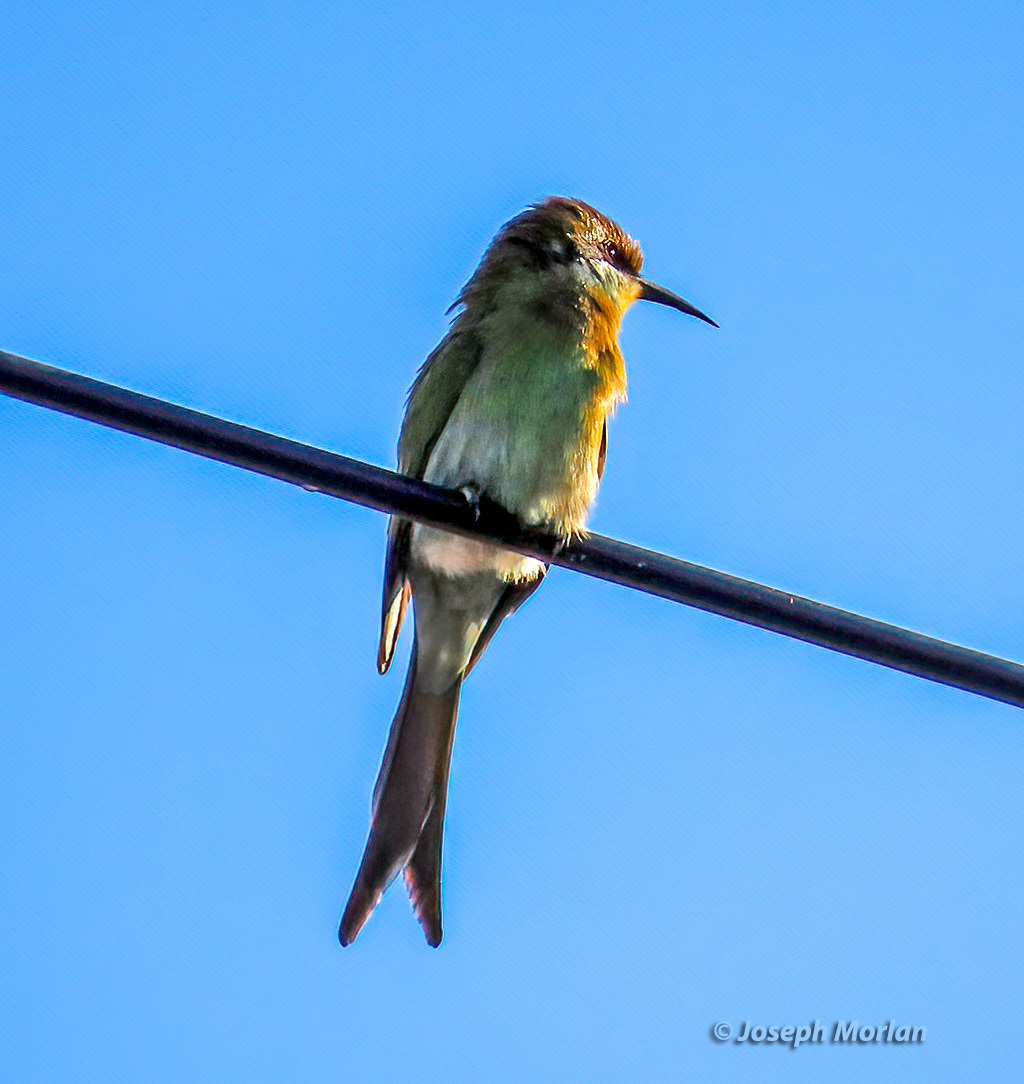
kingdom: Animalia
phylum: Chordata
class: Aves
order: Coraciiformes
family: Meropidae
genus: Merops
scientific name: Merops hirundineus
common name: Swallow-tailed bee-eater
